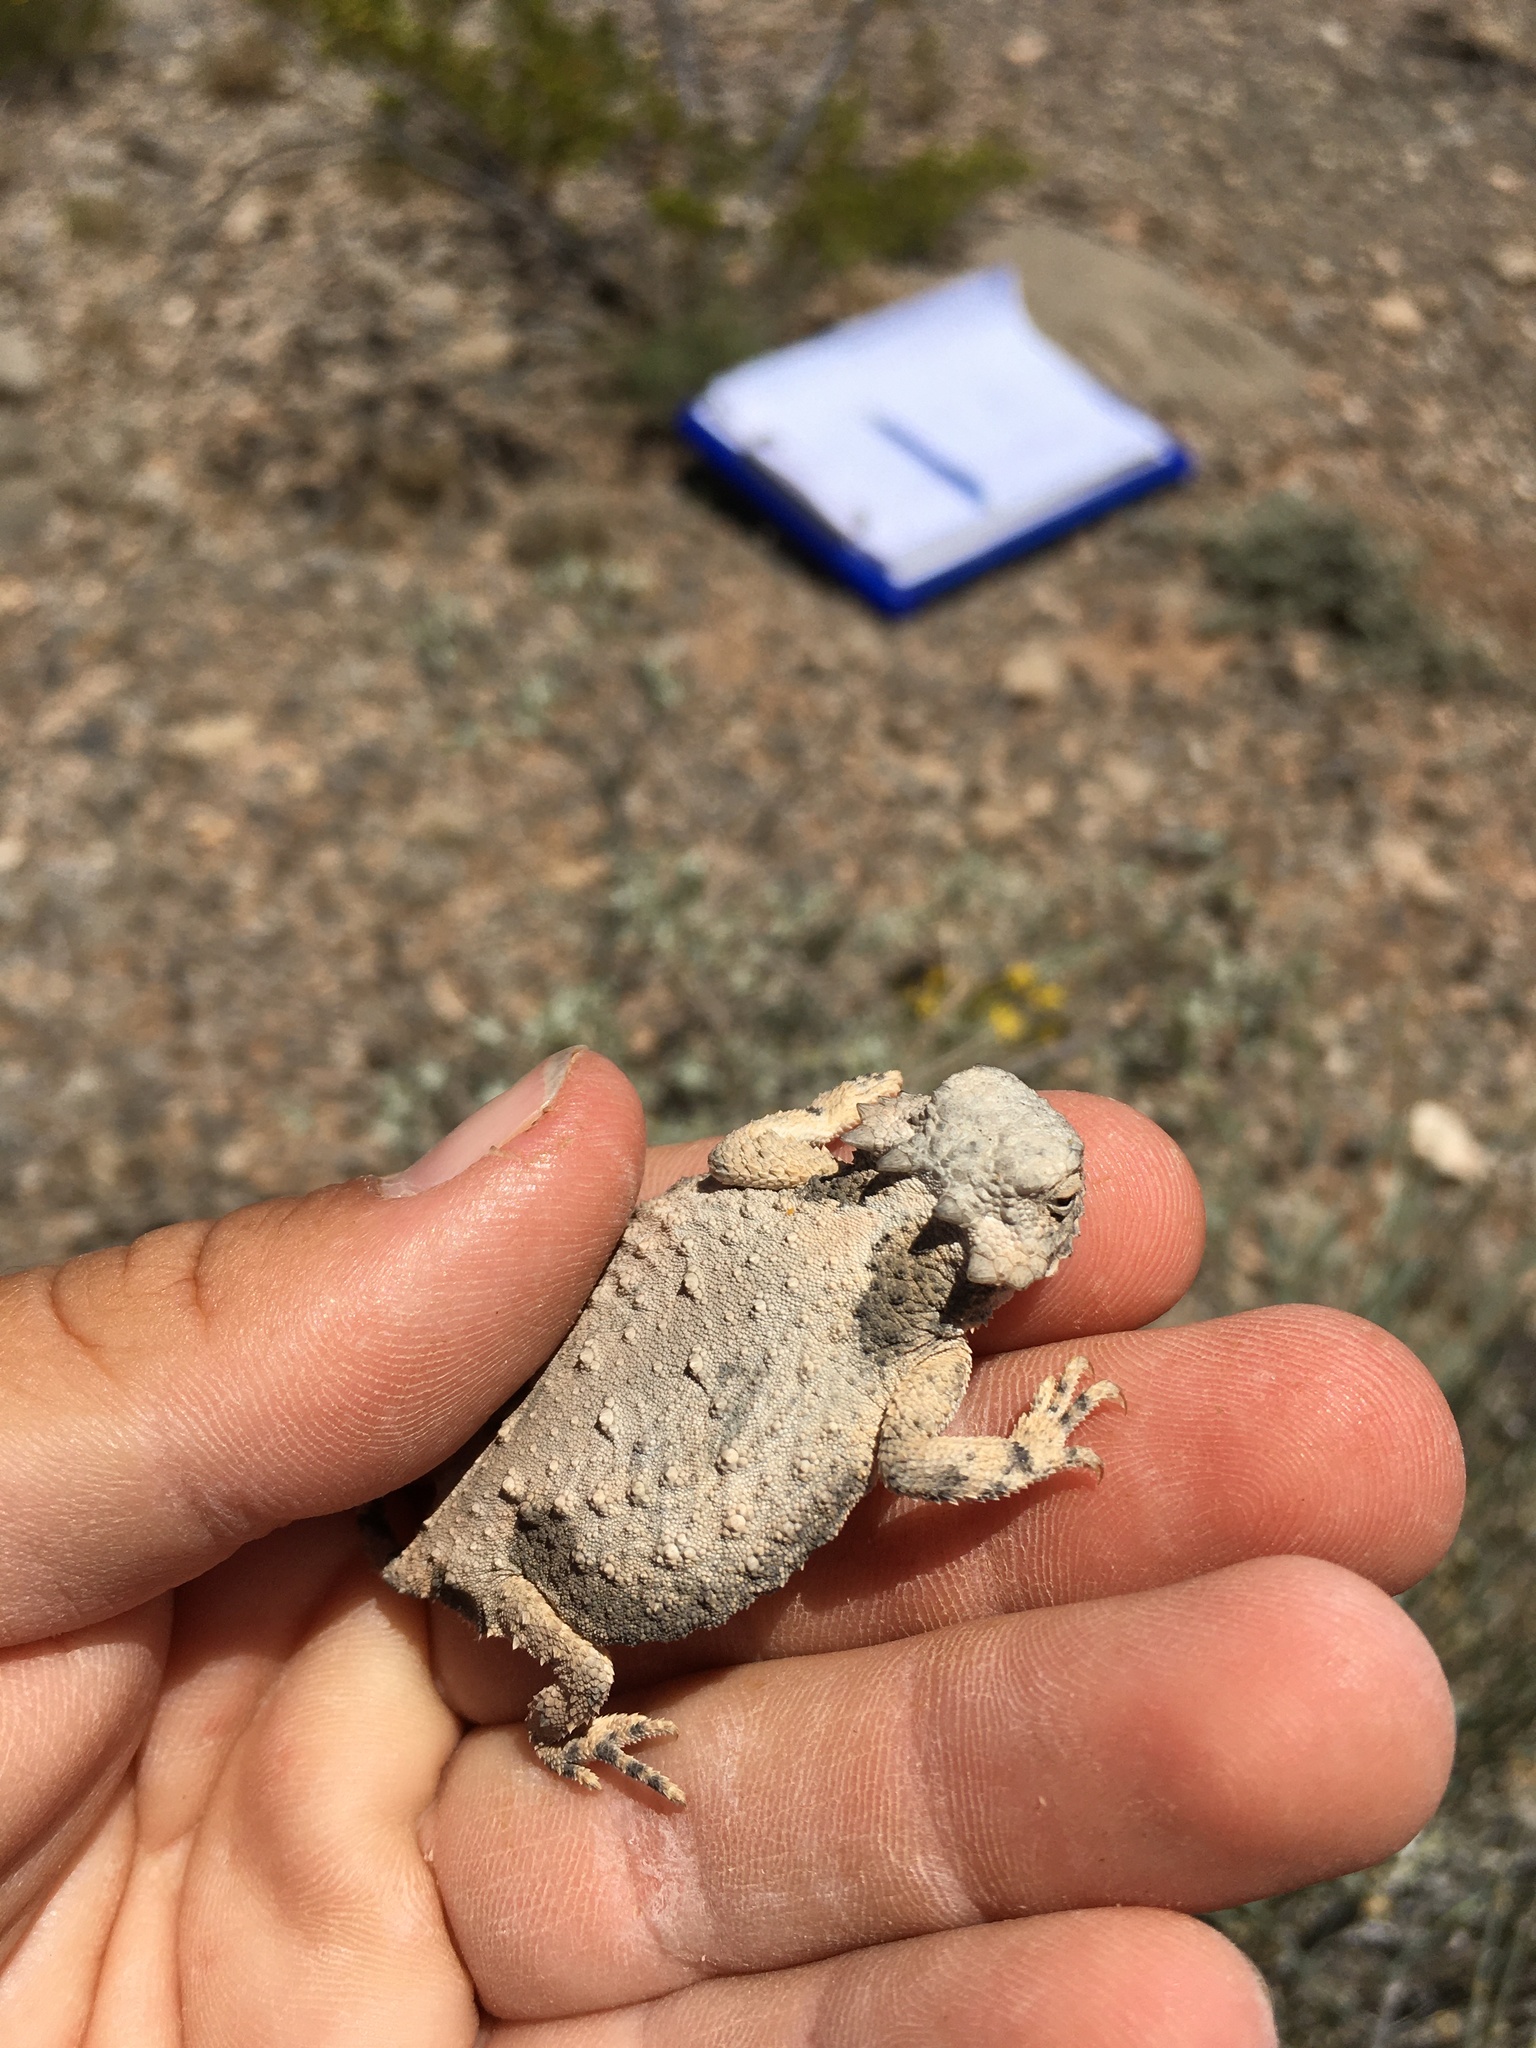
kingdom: Animalia
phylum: Chordata
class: Squamata
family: Phrynosomatidae
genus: Phrynosoma
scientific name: Phrynosoma modestum
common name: Roundtail horned lizard
